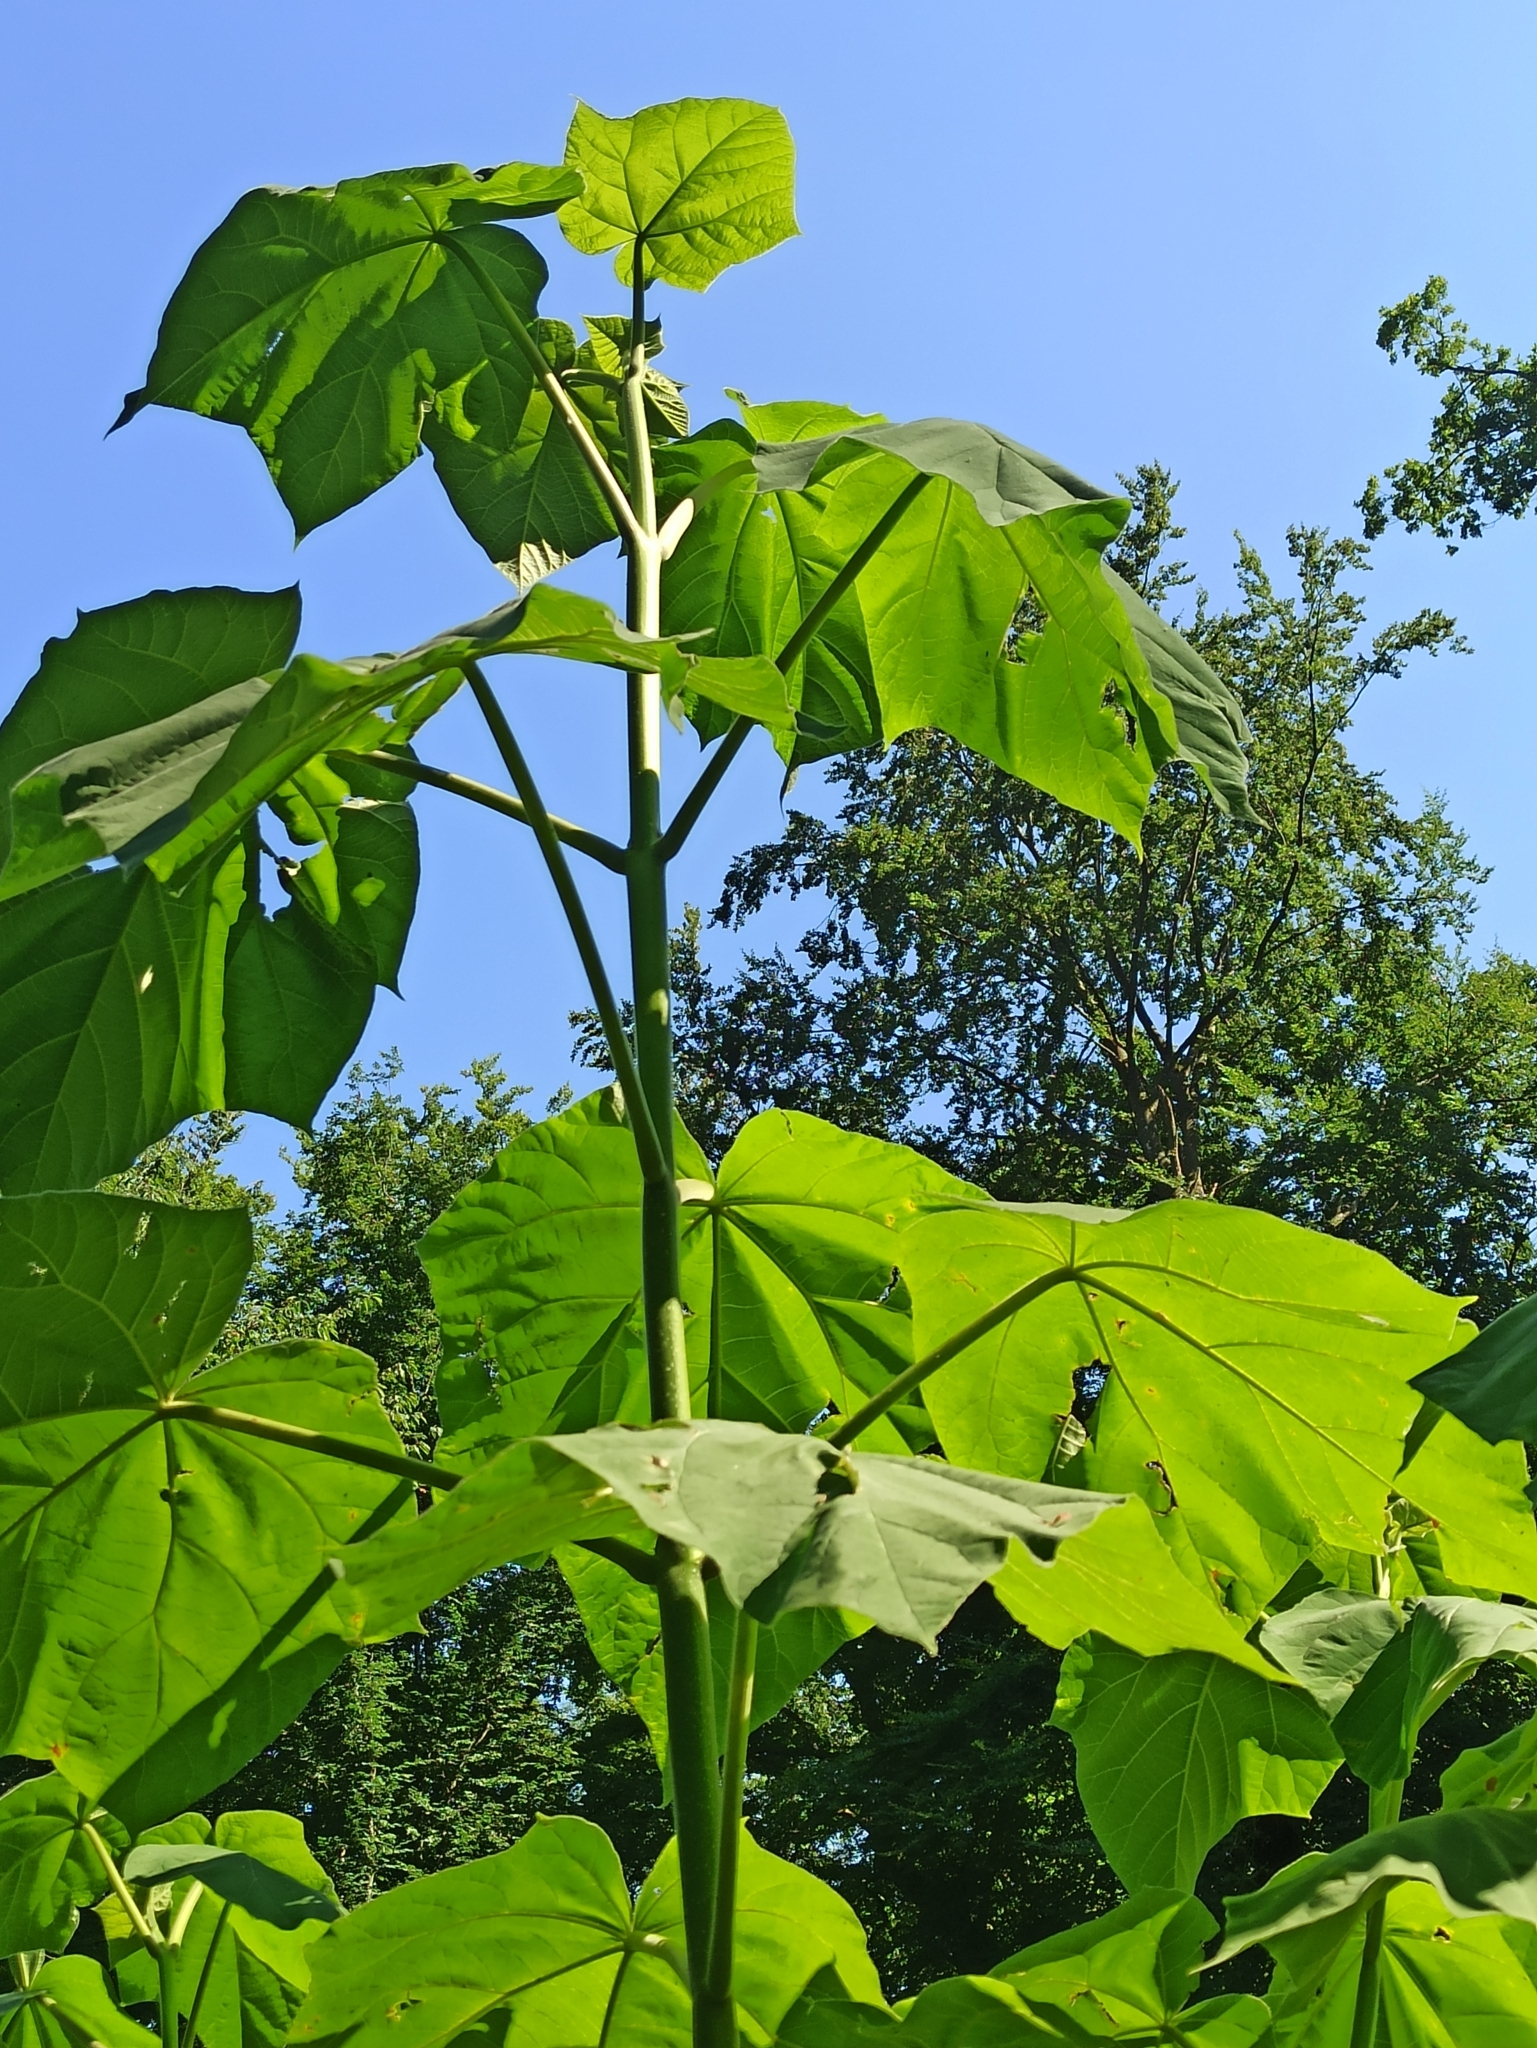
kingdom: Plantae
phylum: Tracheophyta
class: Magnoliopsida
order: Lamiales
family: Paulowniaceae
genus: Paulownia
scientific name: Paulownia tomentosa
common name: Foxglove-tree
